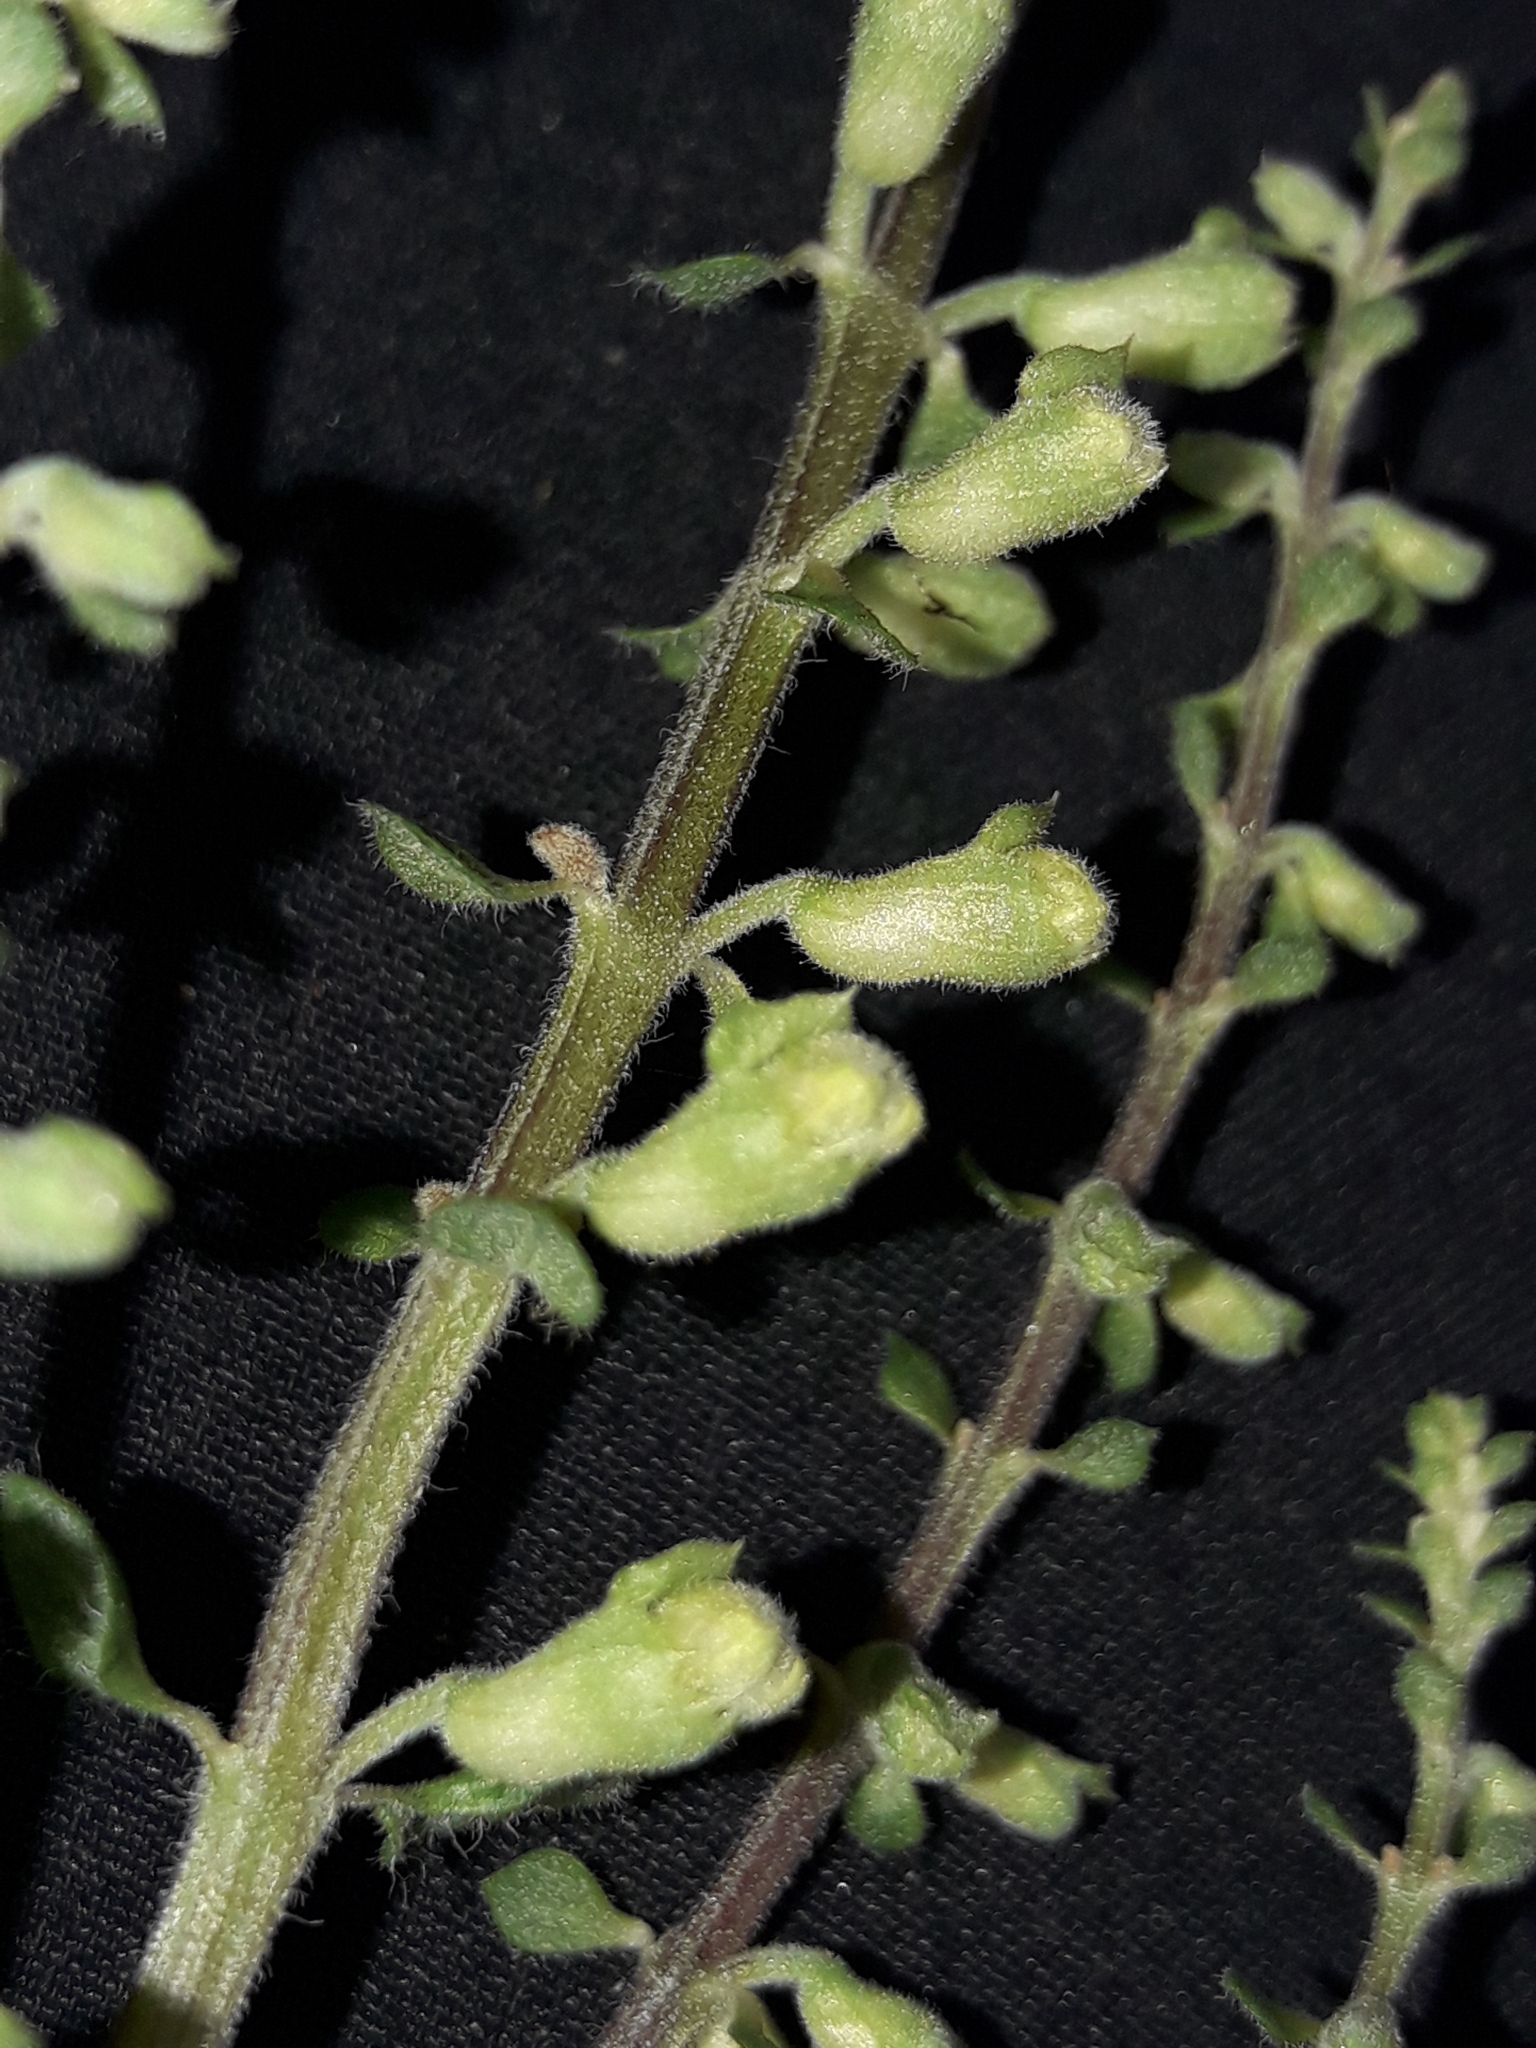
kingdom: Plantae
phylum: Tracheophyta
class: Magnoliopsida
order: Lamiales
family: Lamiaceae
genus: Teucrium
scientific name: Teucrium scorodonia
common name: Woodland germander
